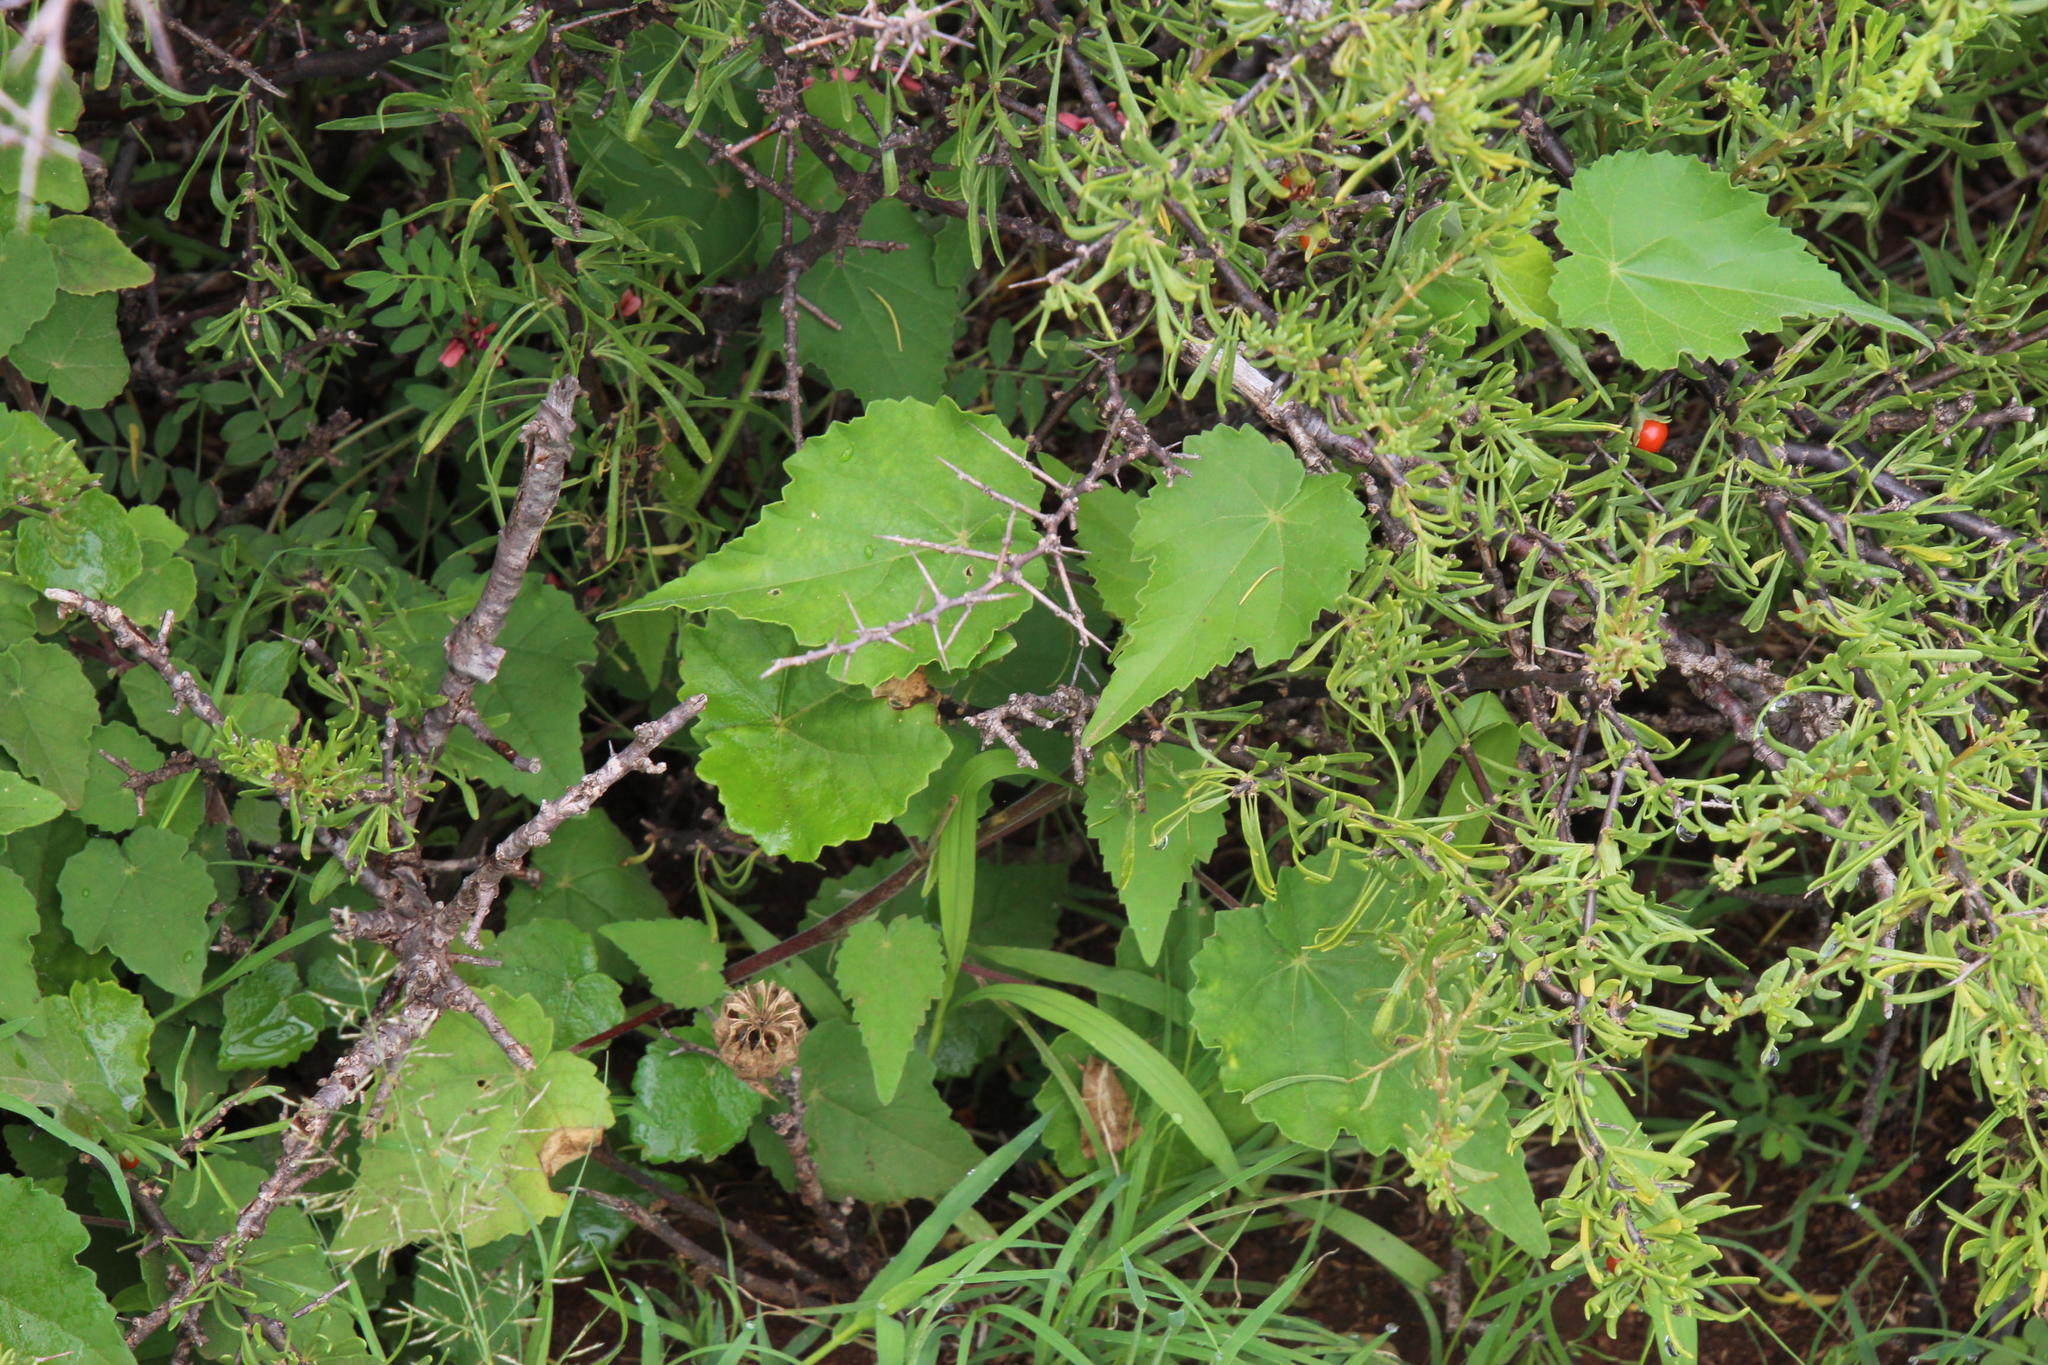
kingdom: Plantae
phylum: Tracheophyta
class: Magnoliopsida
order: Malvales
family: Malvaceae
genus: Abutilon
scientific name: Abutilon sonneratianum
